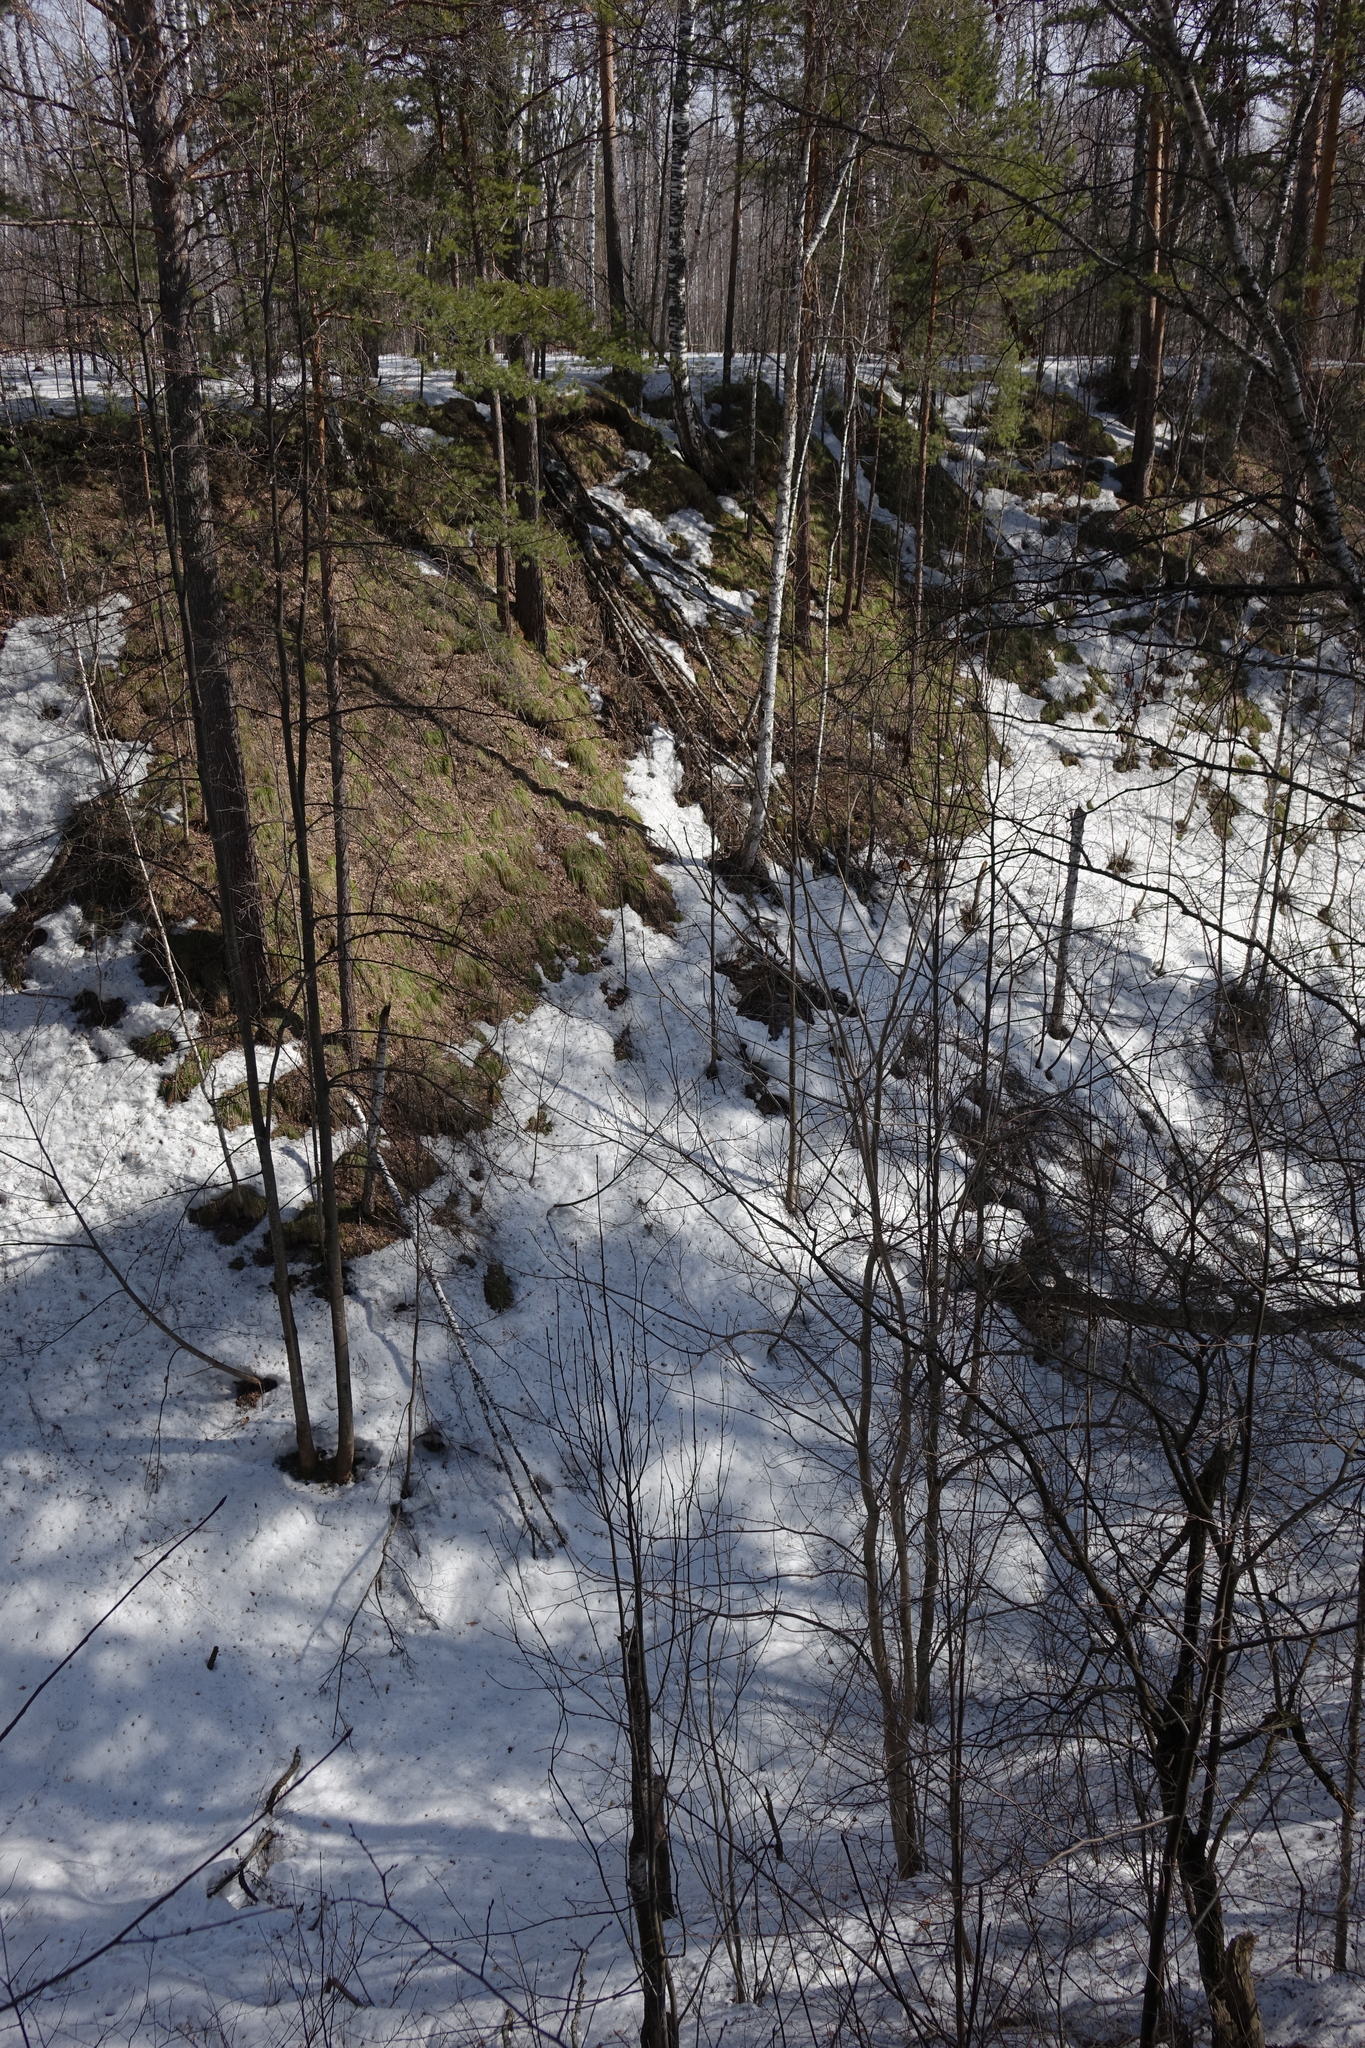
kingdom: Plantae
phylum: Tracheophyta
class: Pinopsida
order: Pinales
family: Pinaceae
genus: Pinus
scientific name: Pinus sylvestris
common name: Scots pine
